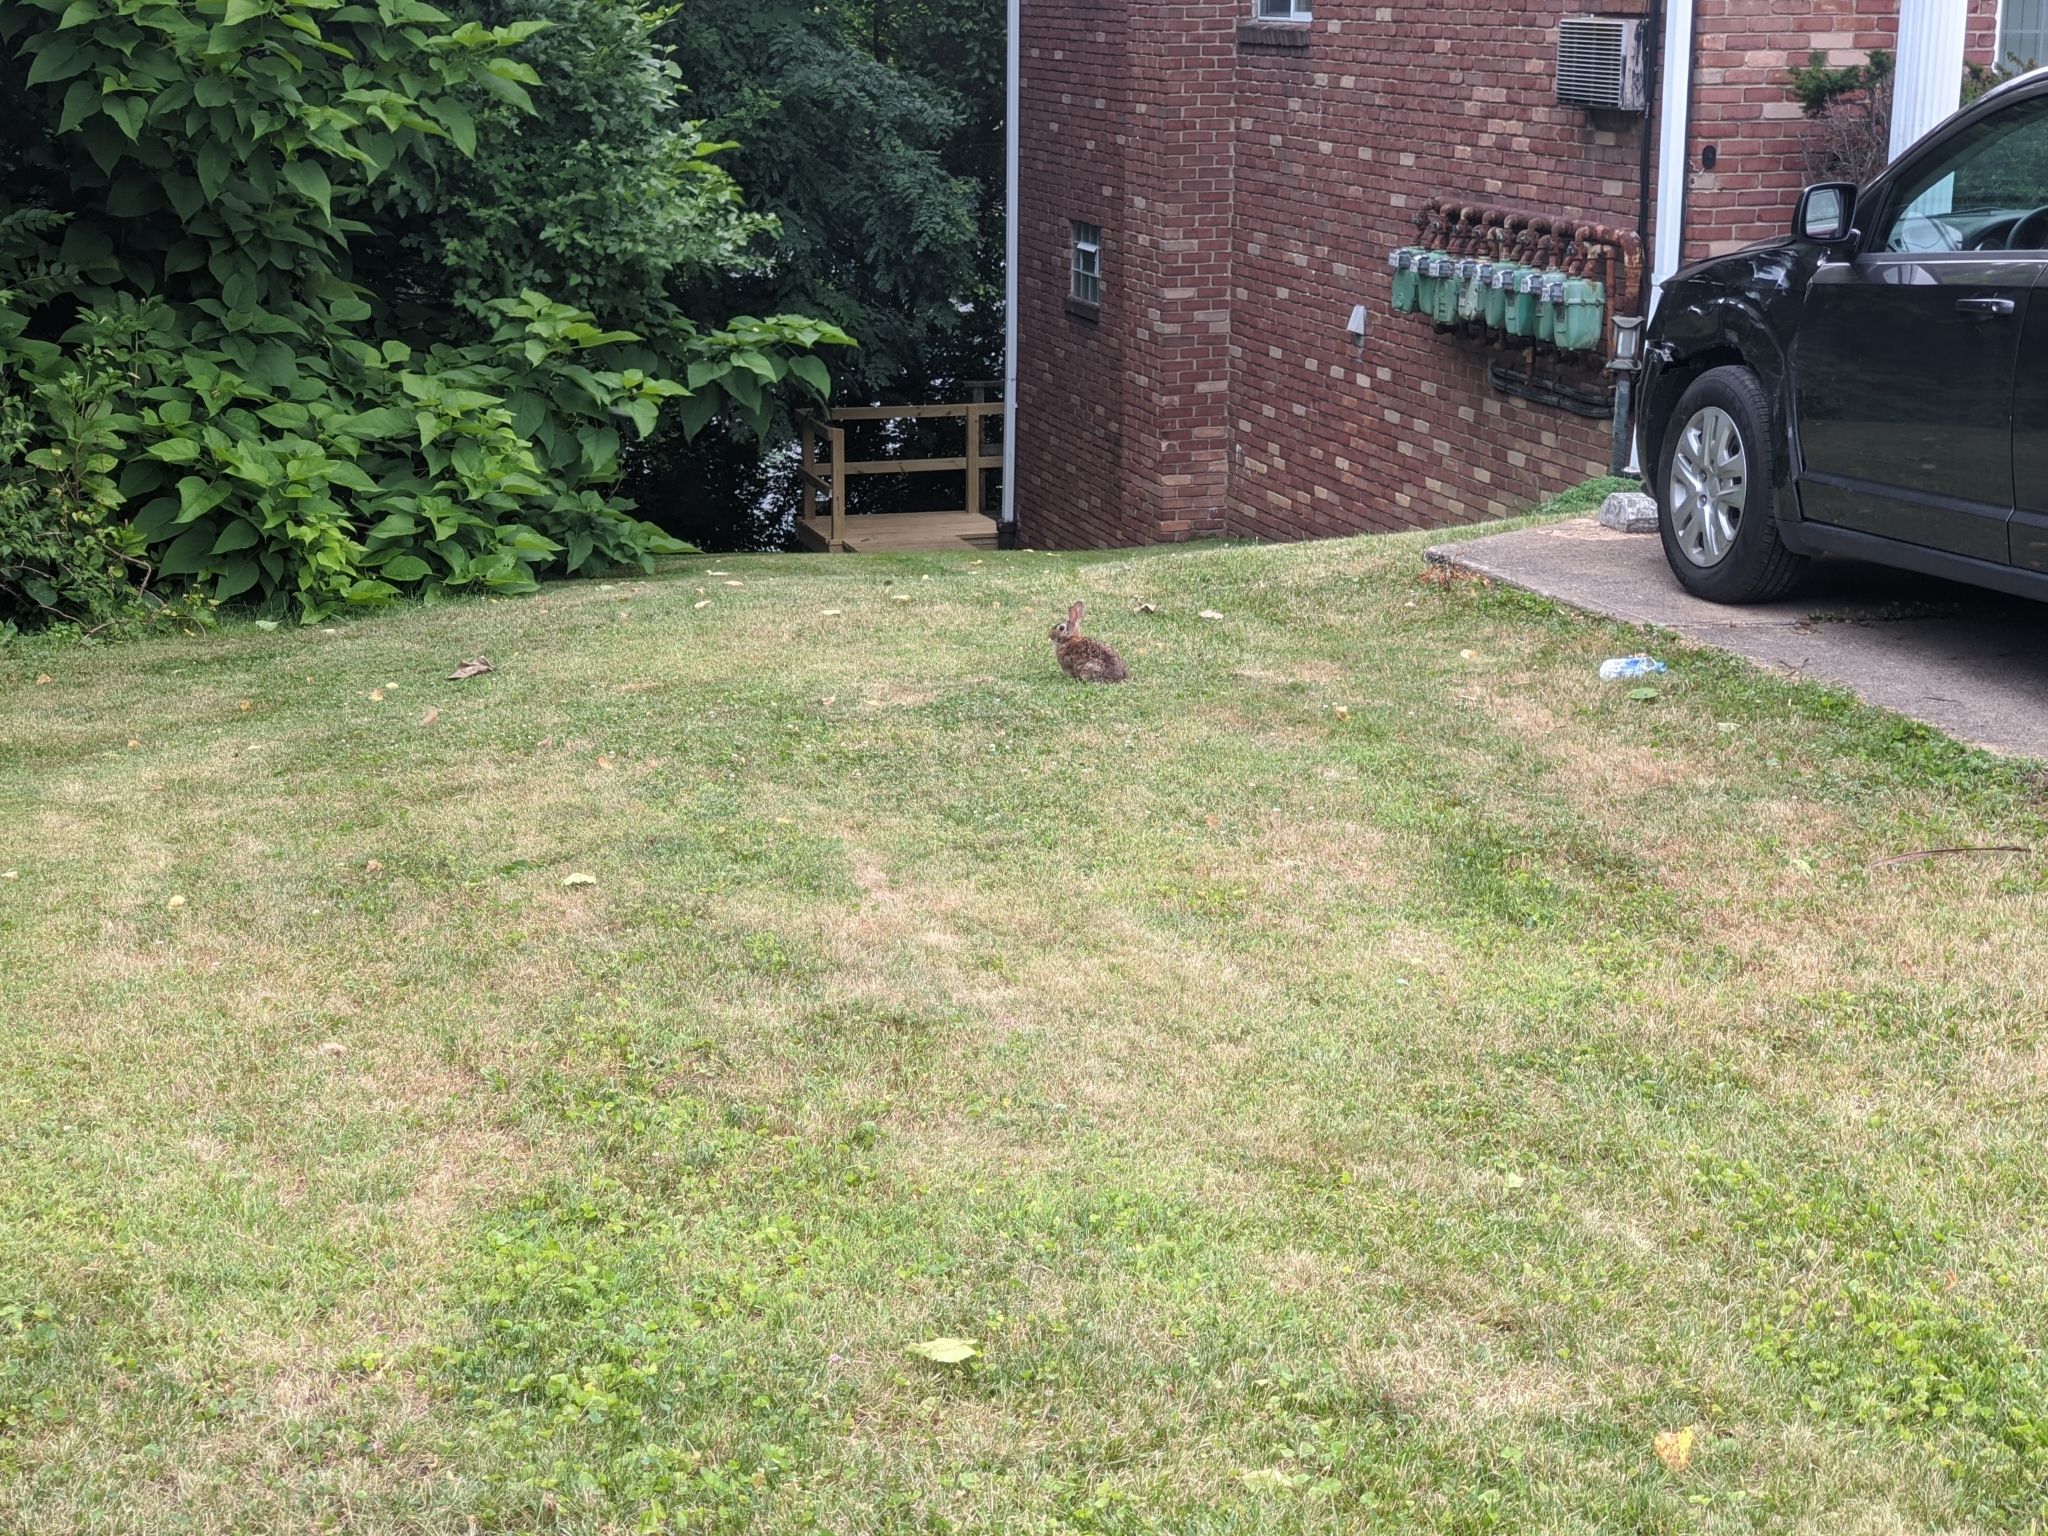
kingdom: Animalia
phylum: Chordata
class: Mammalia
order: Lagomorpha
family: Leporidae
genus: Sylvilagus
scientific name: Sylvilagus floridanus
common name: Eastern cottontail
